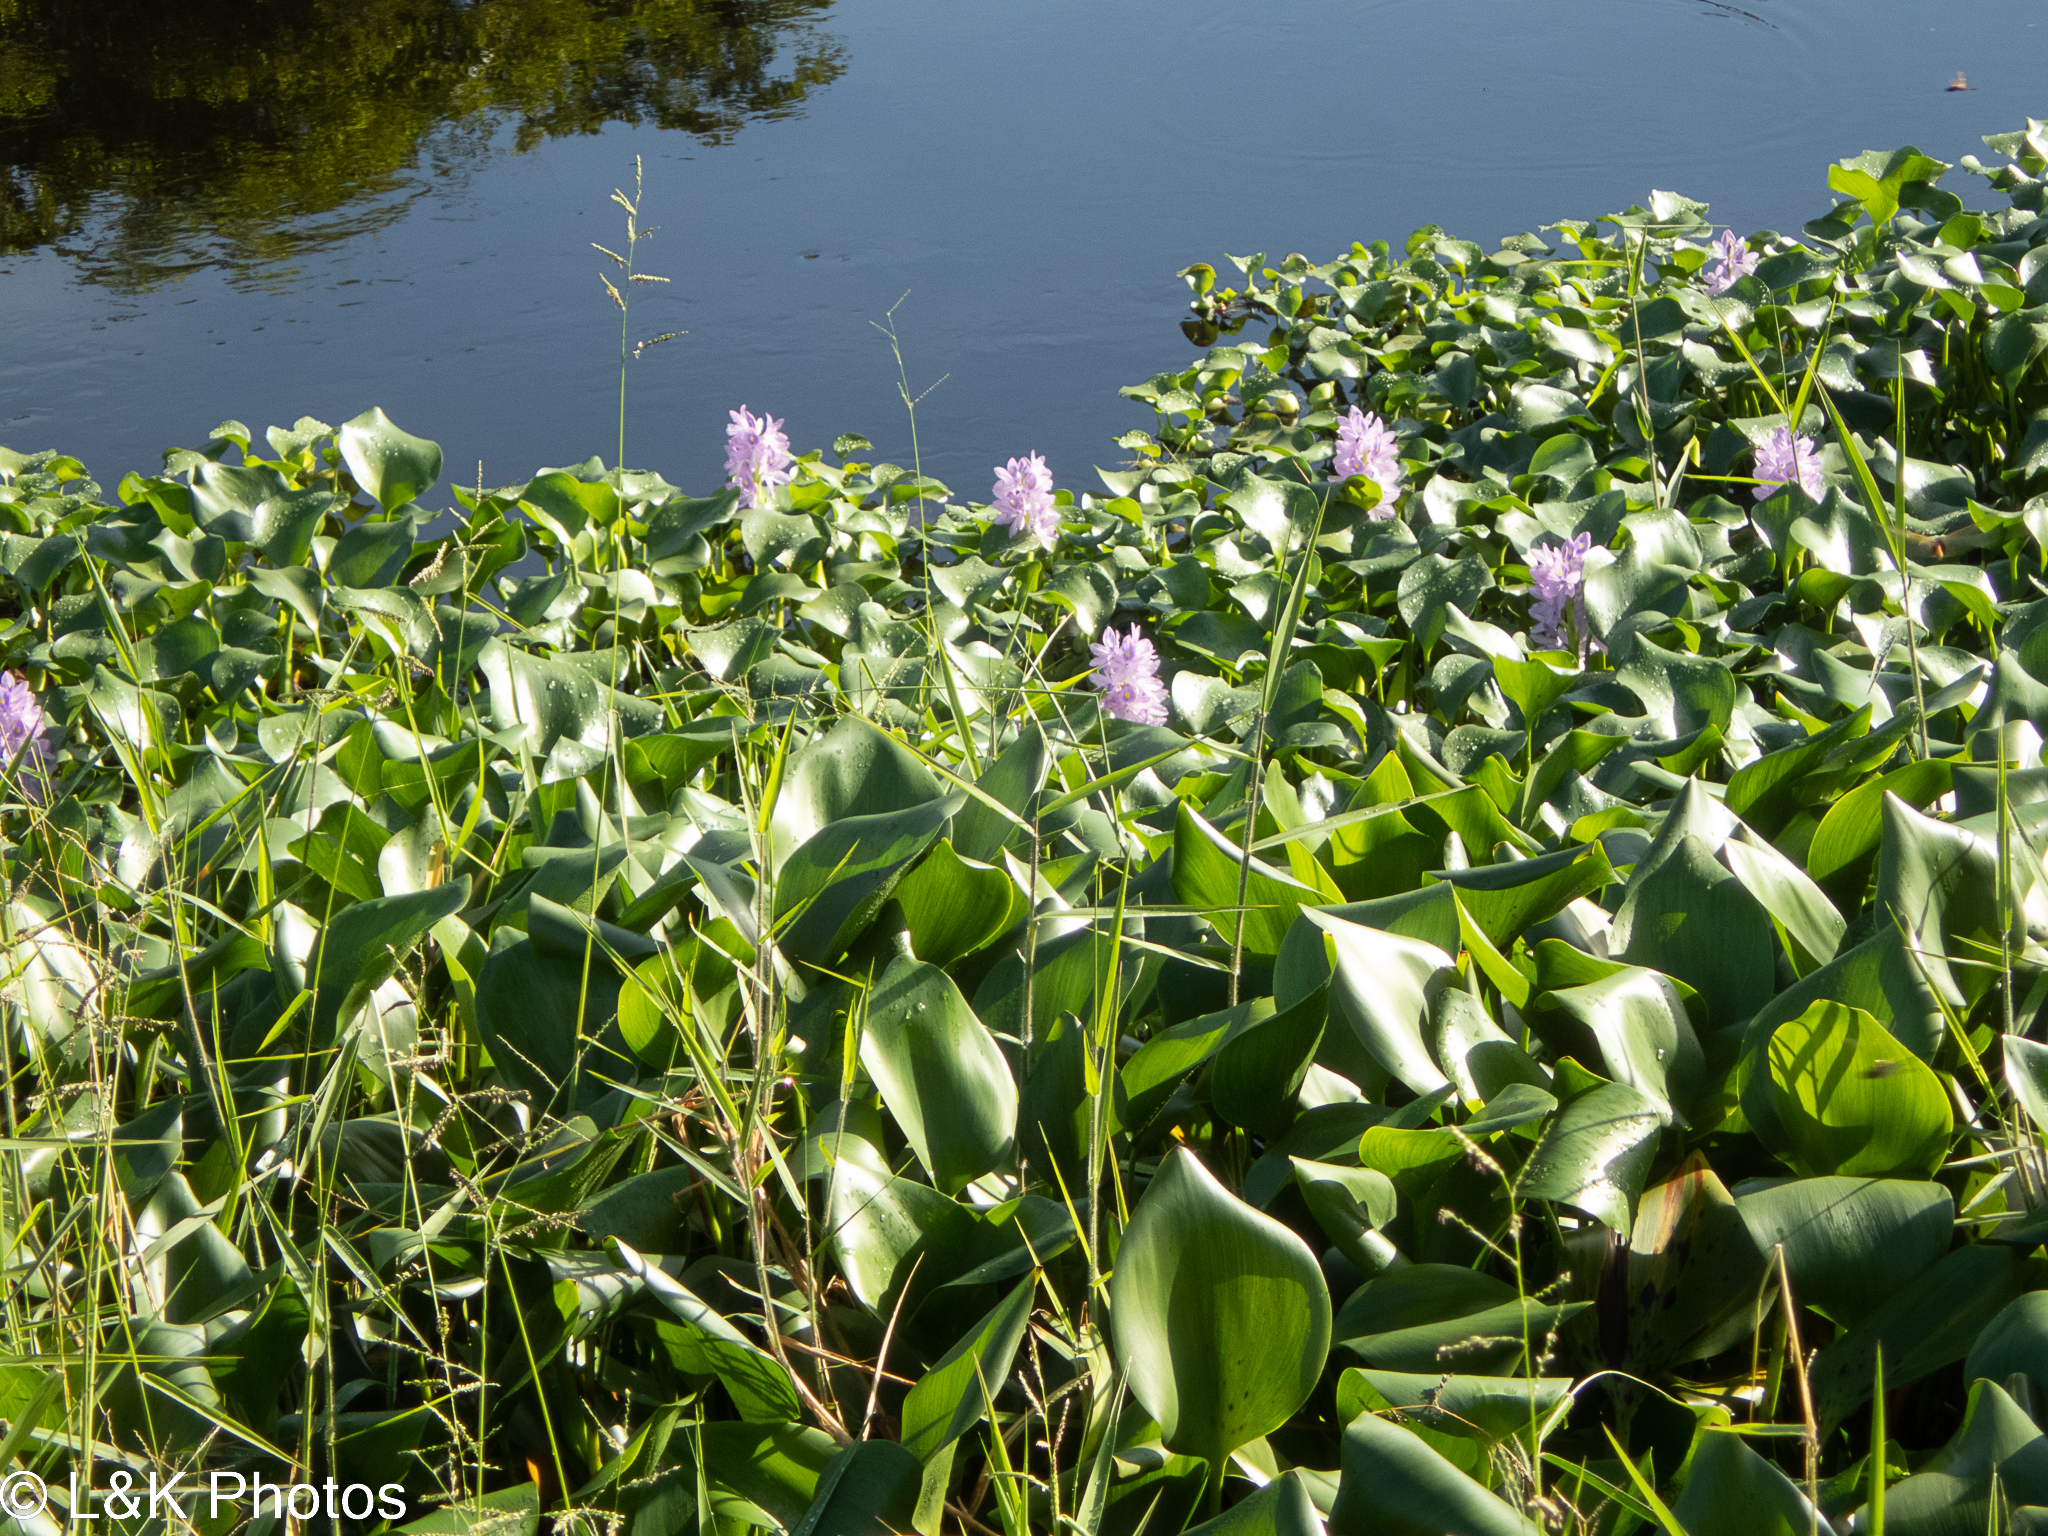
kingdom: Plantae
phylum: Tracheophyta
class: Liliopsida
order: Commelinales
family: Pontederiaceae
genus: Pontederia
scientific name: Pontederia crassipes
